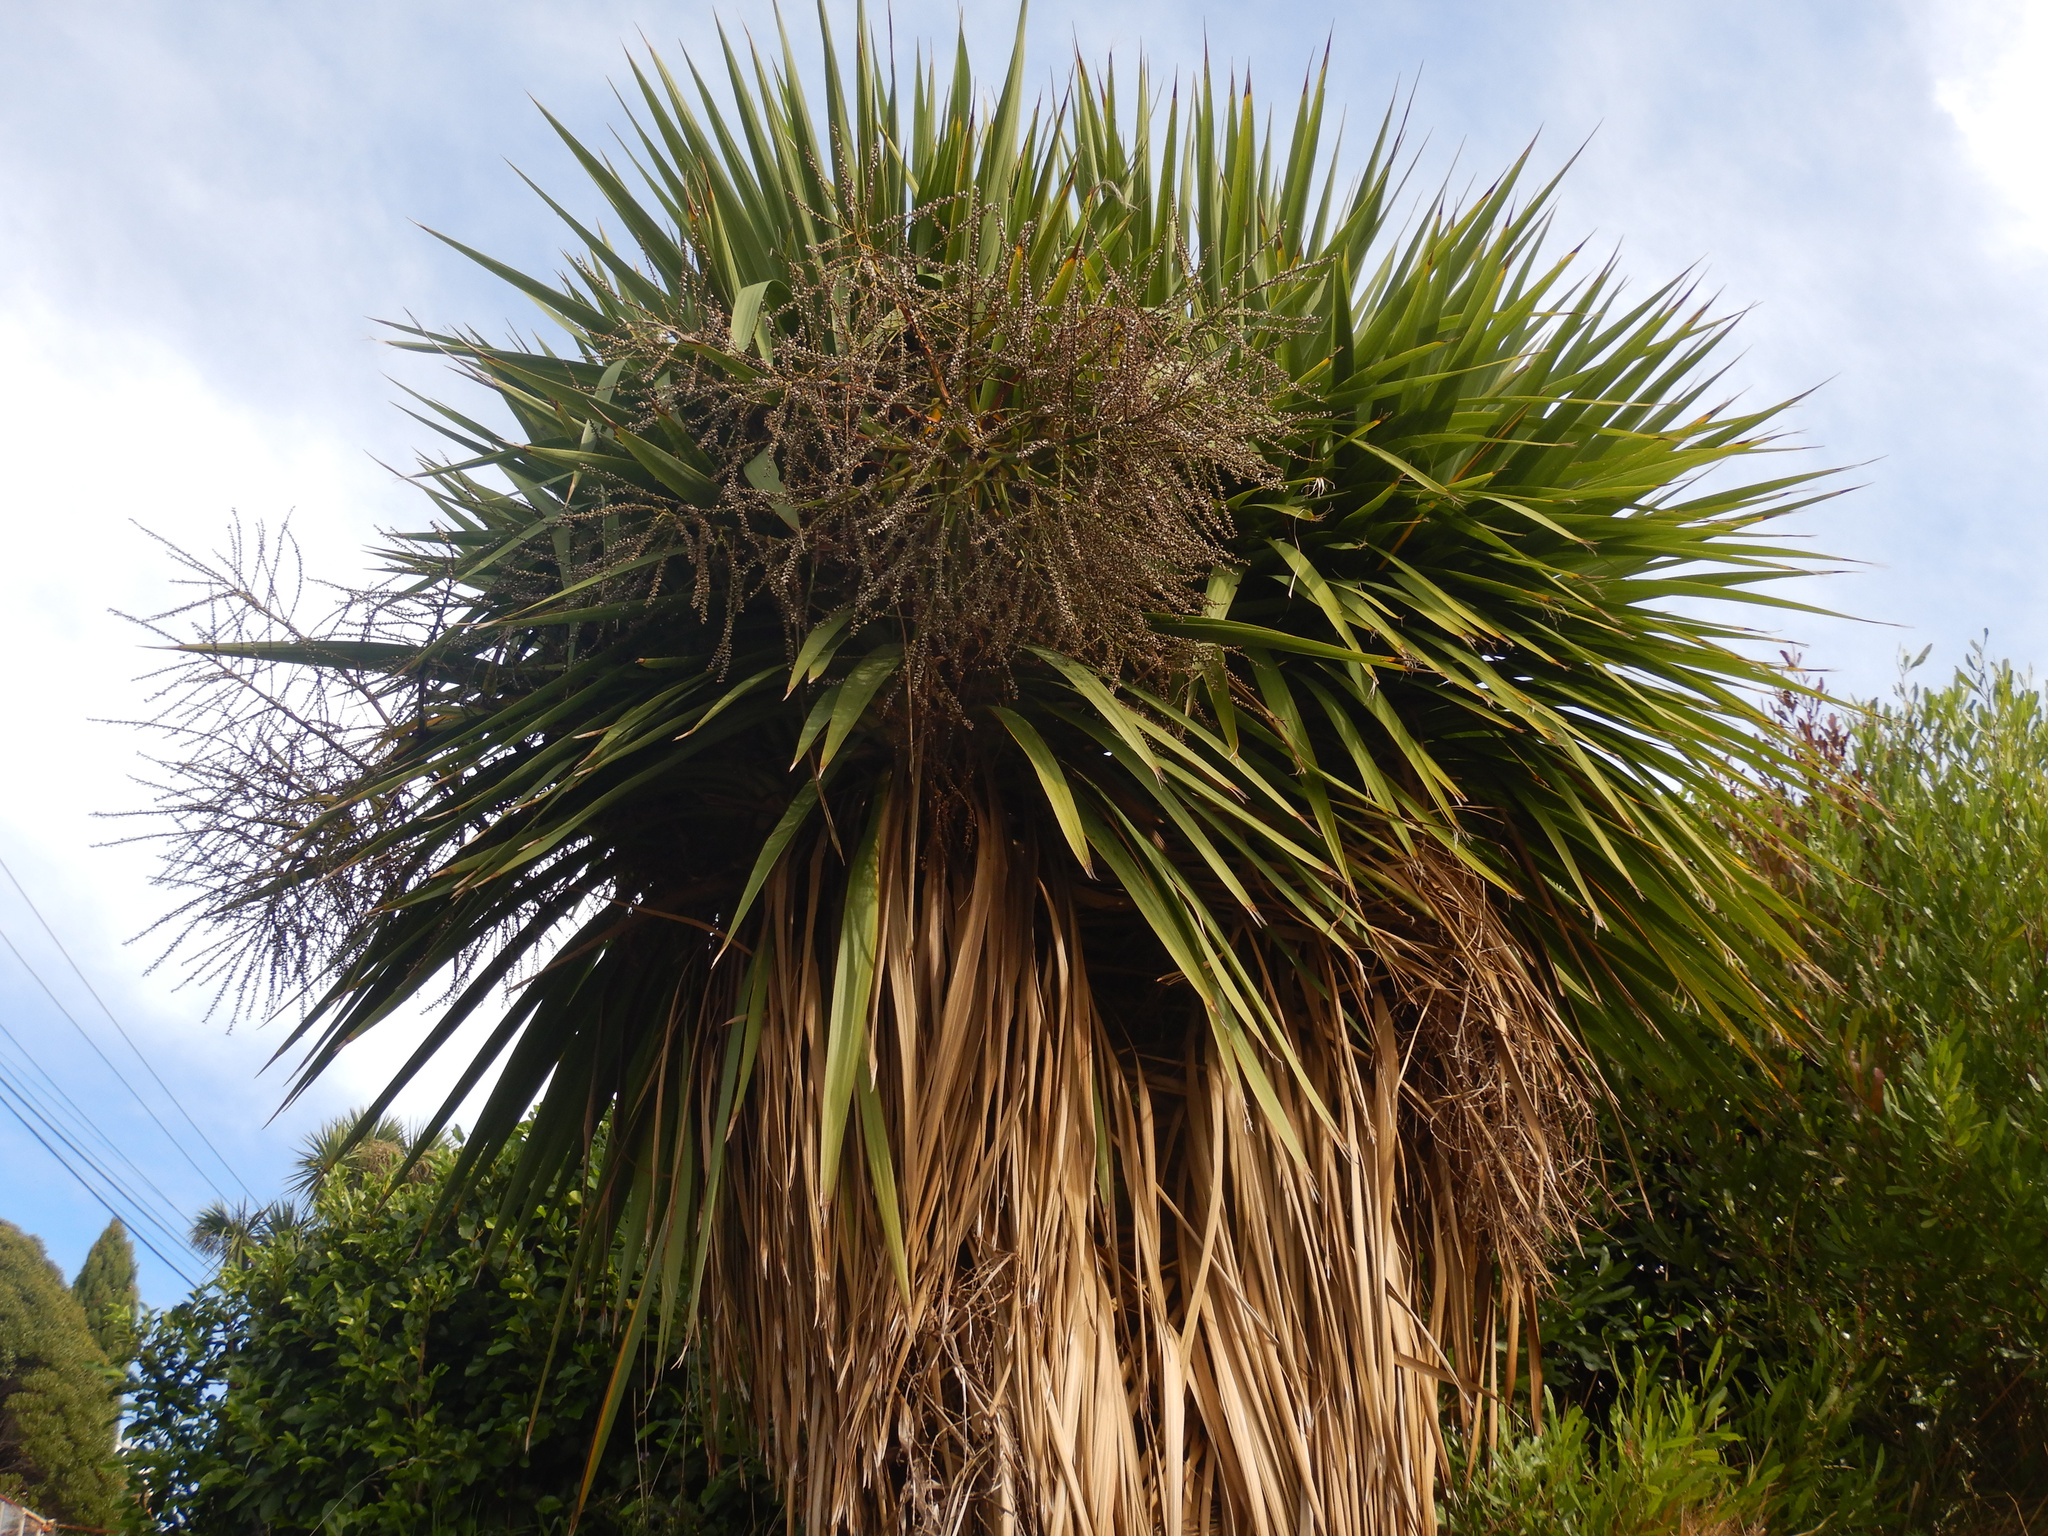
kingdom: Plantae
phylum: Tracheophyta
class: Liliopsida
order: Asparagales
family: Asparagaceae
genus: Cordyline
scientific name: Cordyline australis
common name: Cabbage-palm
